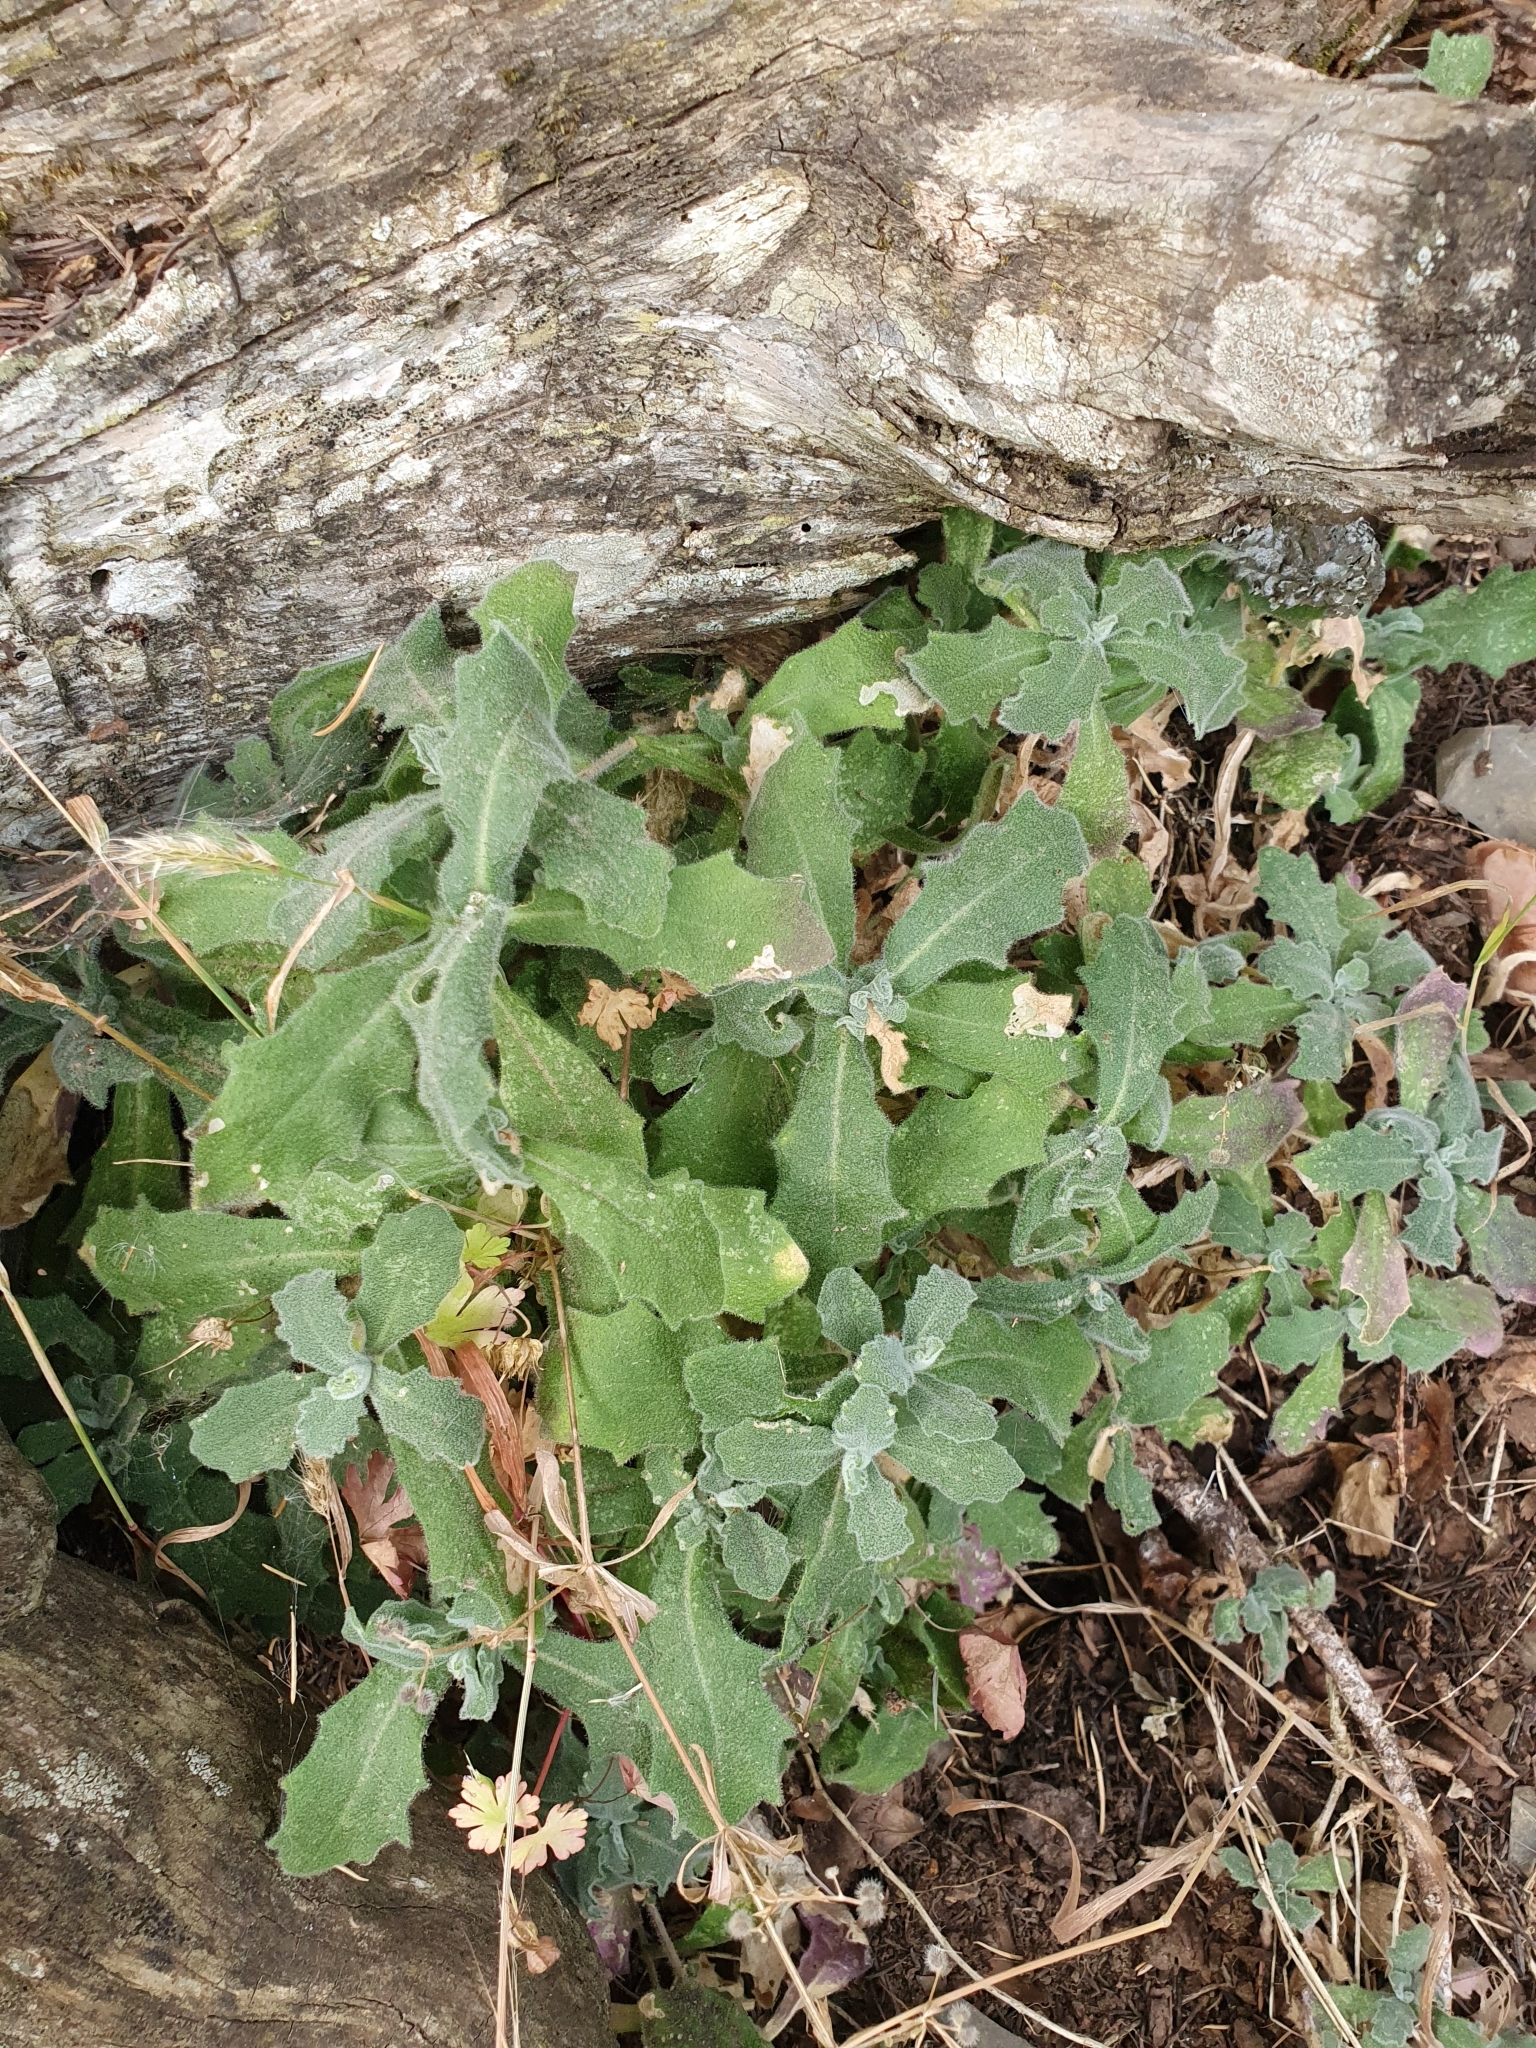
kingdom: Plantae
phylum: Tracheophyta
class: Magnoliopsida
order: Brassicales
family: Brassicaceae
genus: Arabis
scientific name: Arabis caucasica
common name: Gray rockcress
